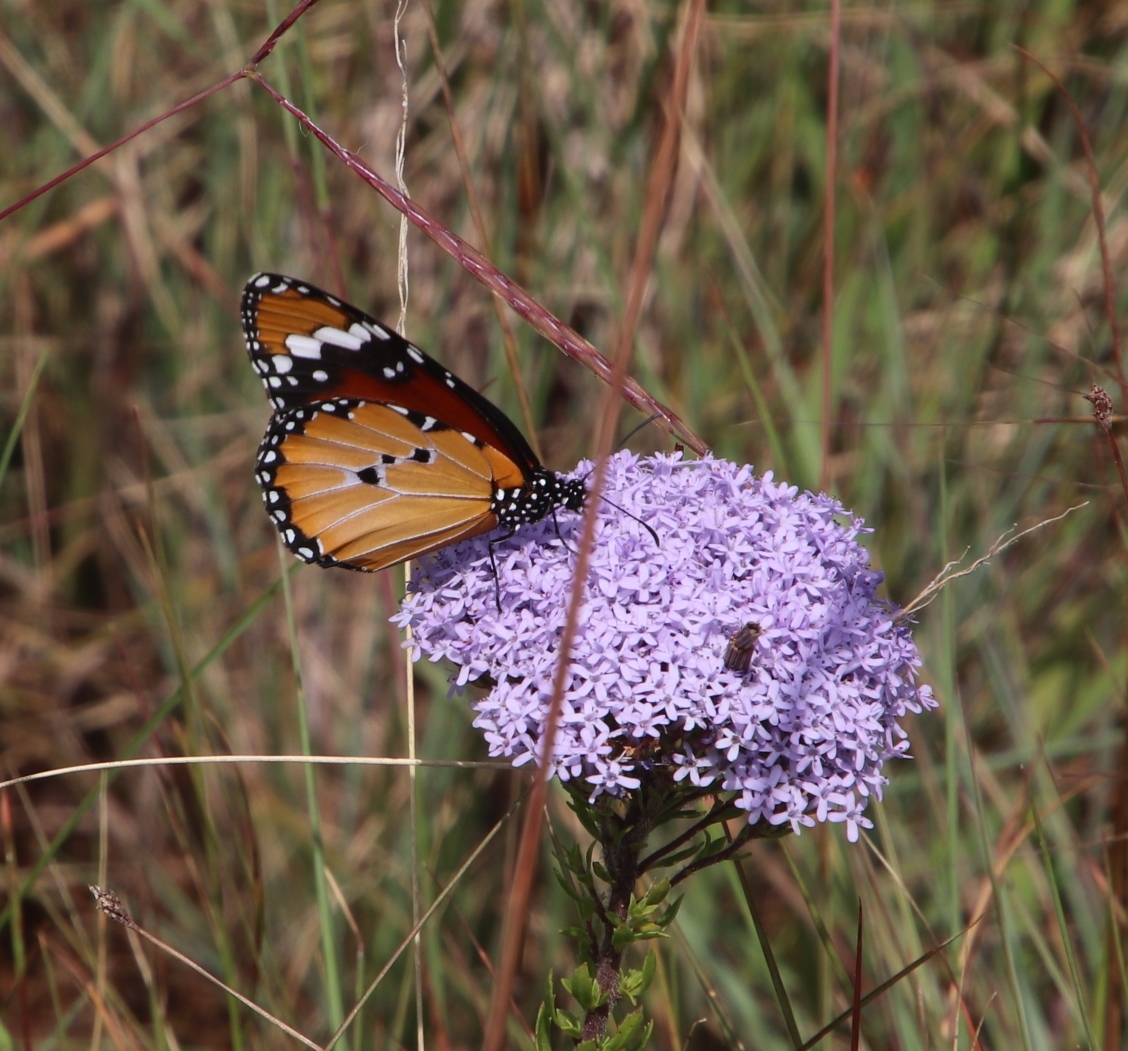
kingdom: Animalia
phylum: Arthropoda
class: Insecta
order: Lepidoptera
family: Nymphalidae
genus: Danaus
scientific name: Danaus chrysippus
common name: Plain tiger
